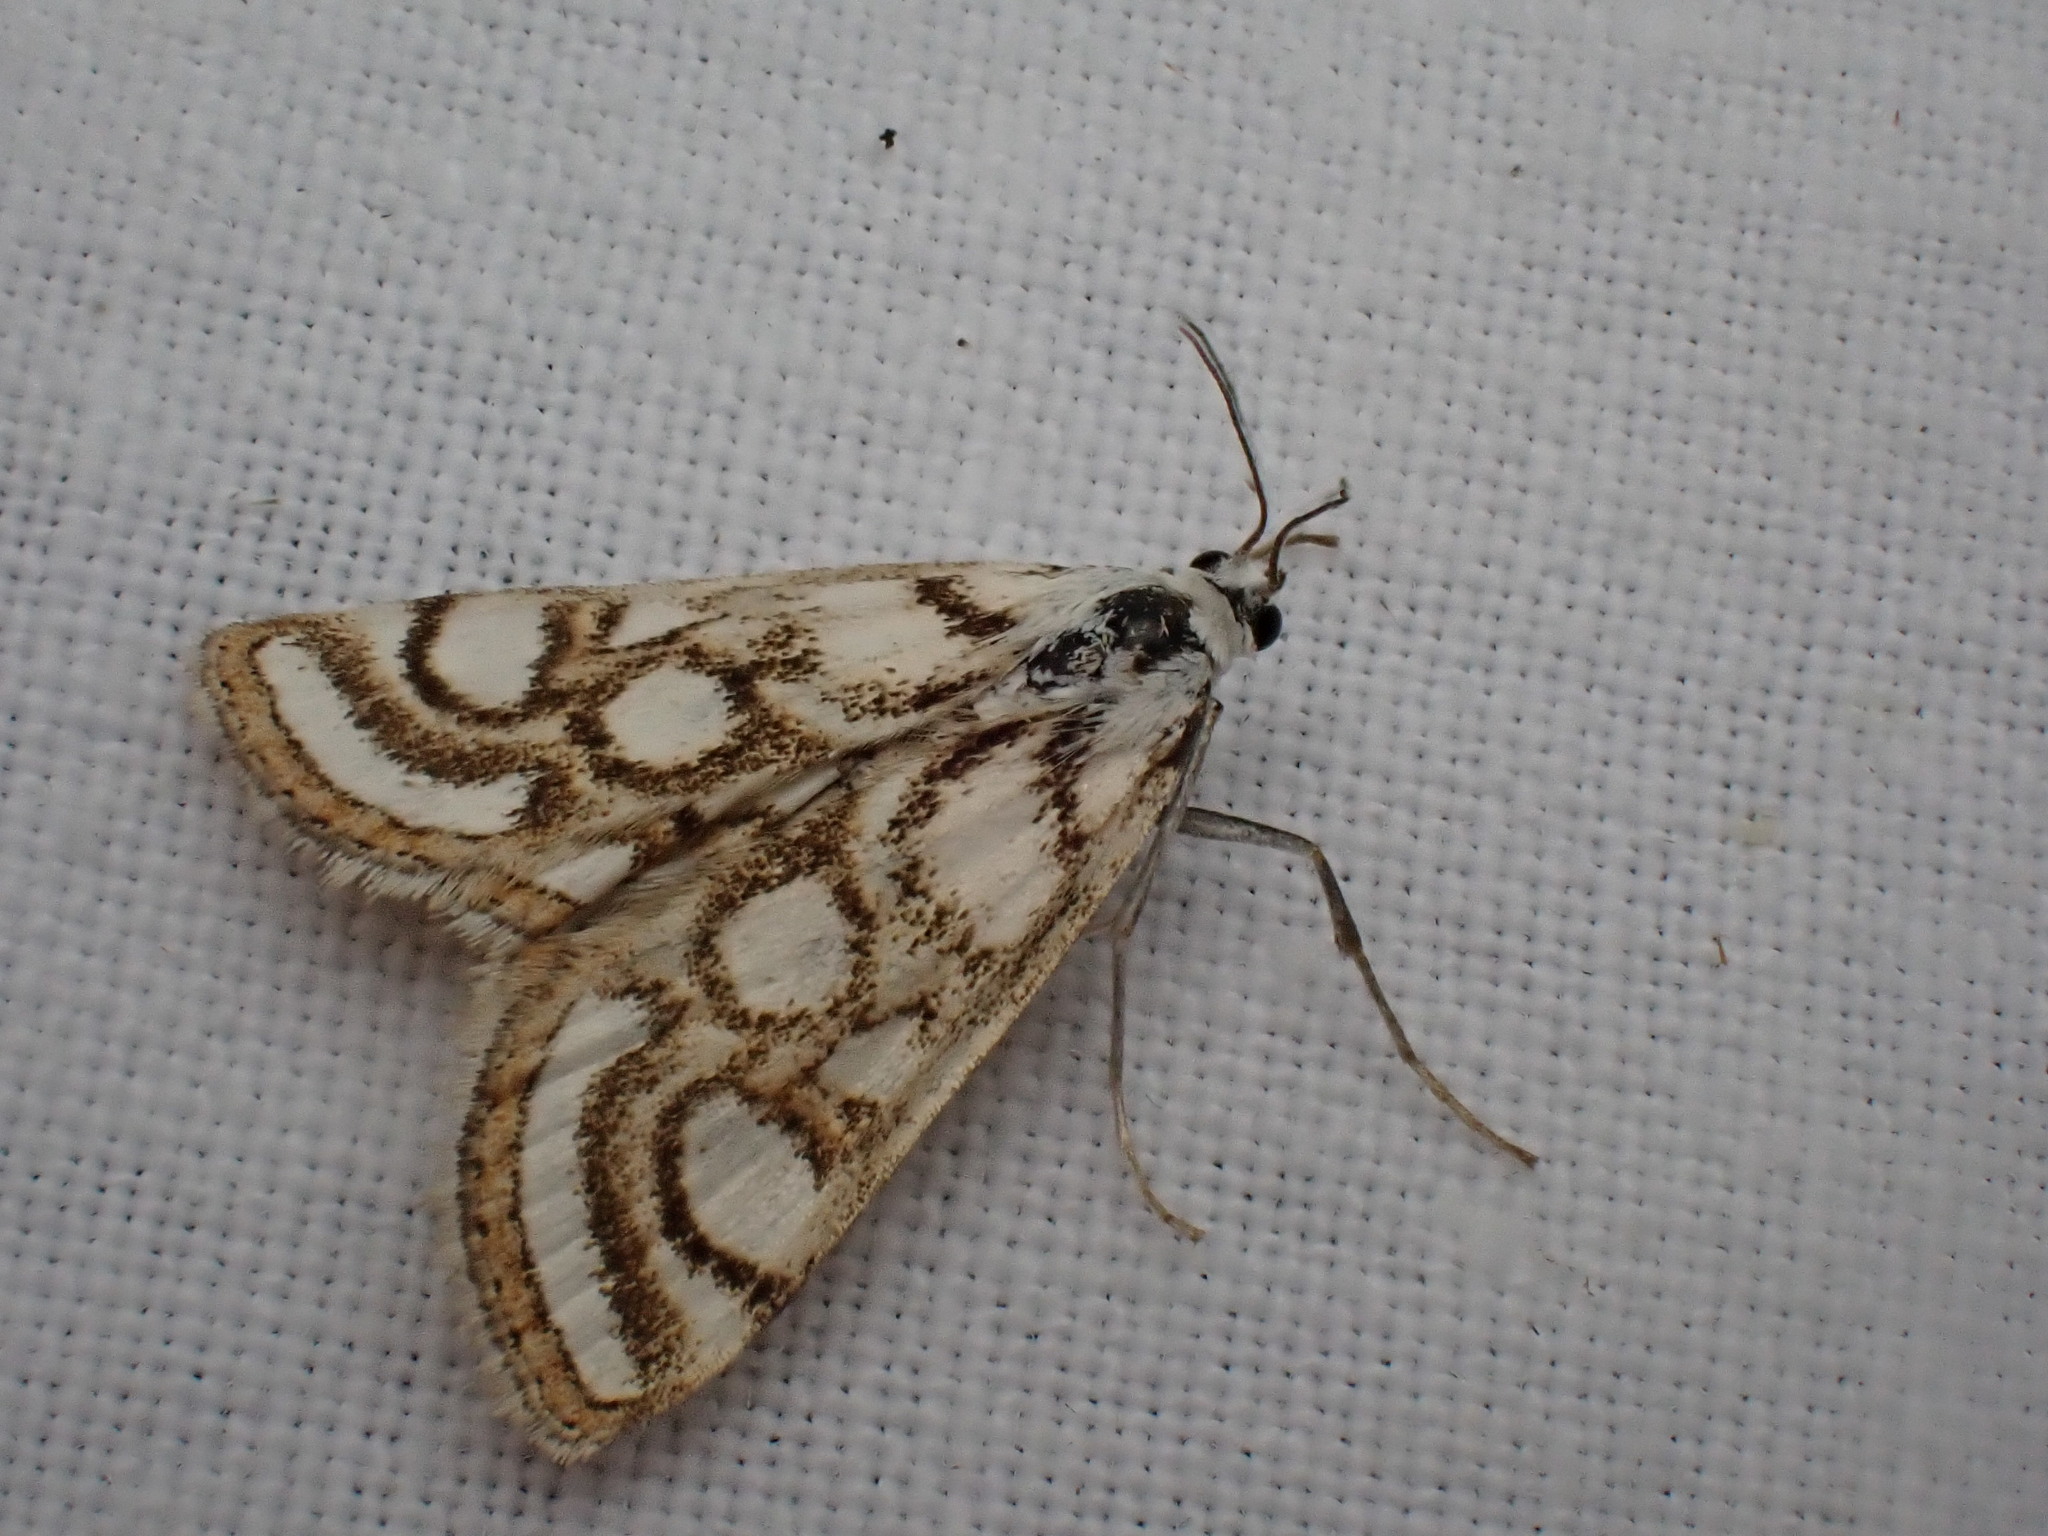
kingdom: Animalia
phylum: Arthropoda
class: Insecta
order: Lepidoptera
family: Crambidae
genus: Nymphula
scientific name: Nymphula nitidulata
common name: Beautiful china mark
